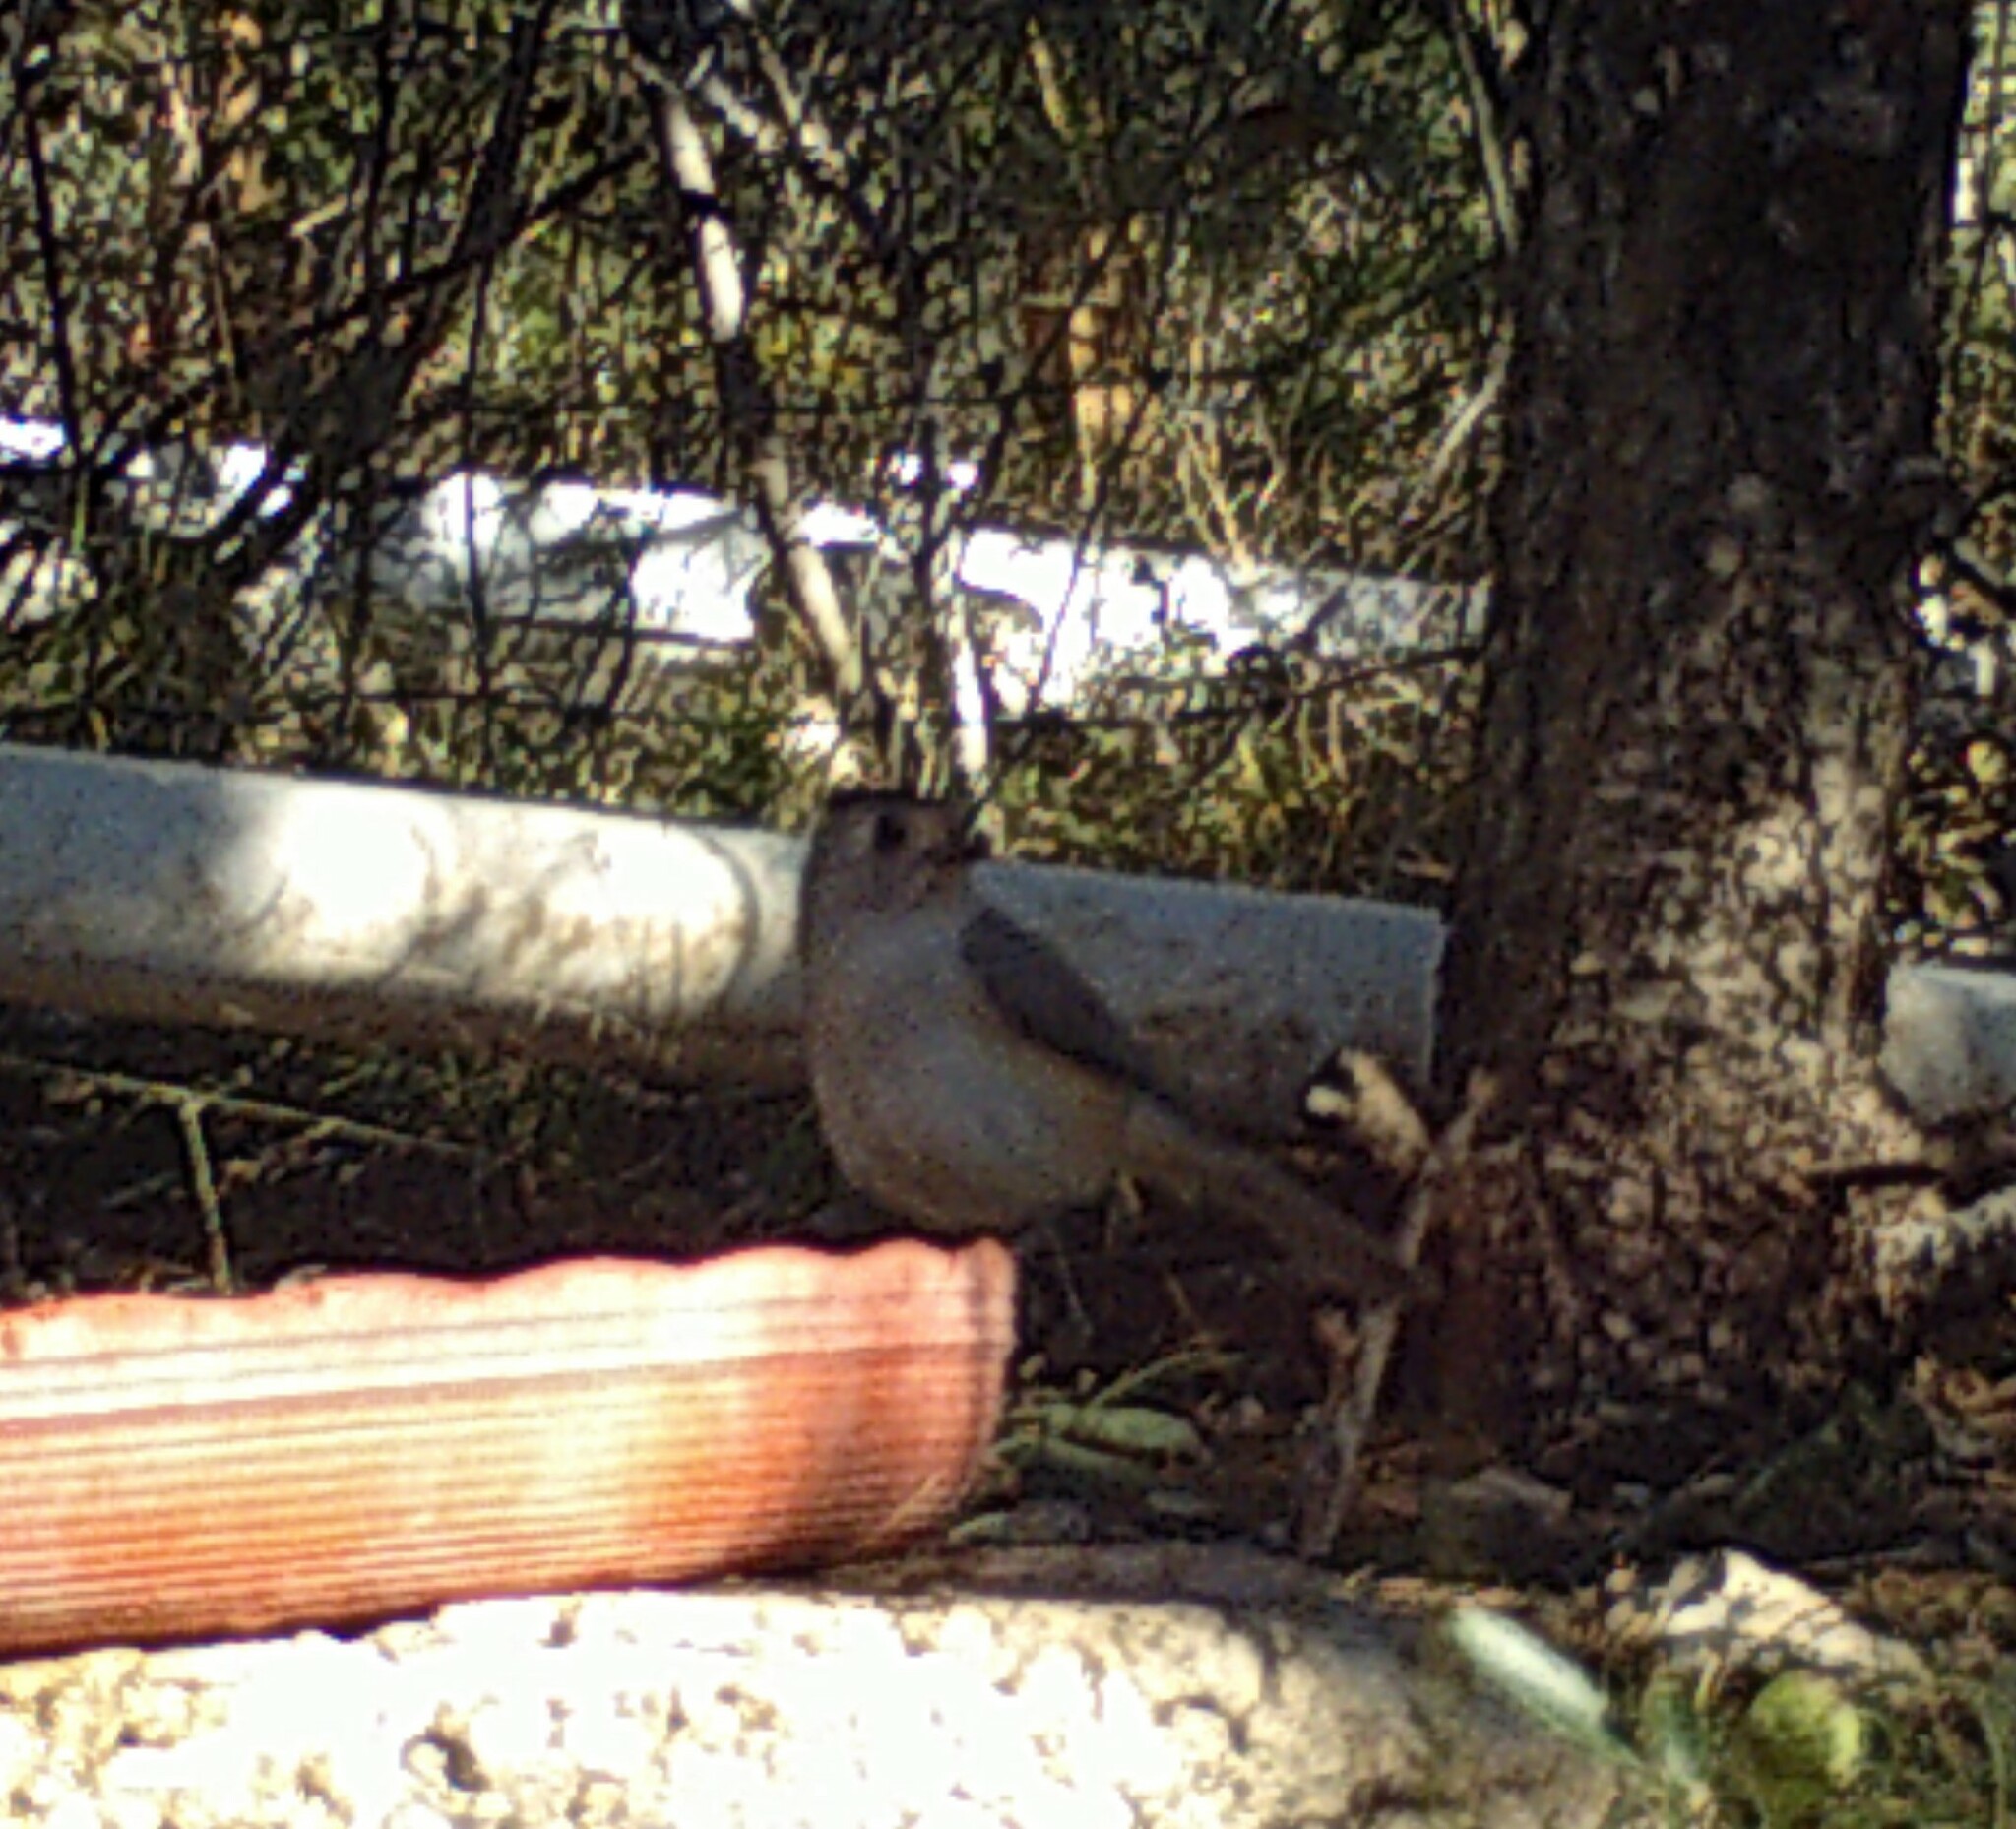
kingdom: Animalia
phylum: Chordata
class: Aves
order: Passeriformes
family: Paridae
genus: Baeolophus
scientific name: Baeolophus atricristatus
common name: Black-crested titmouse
